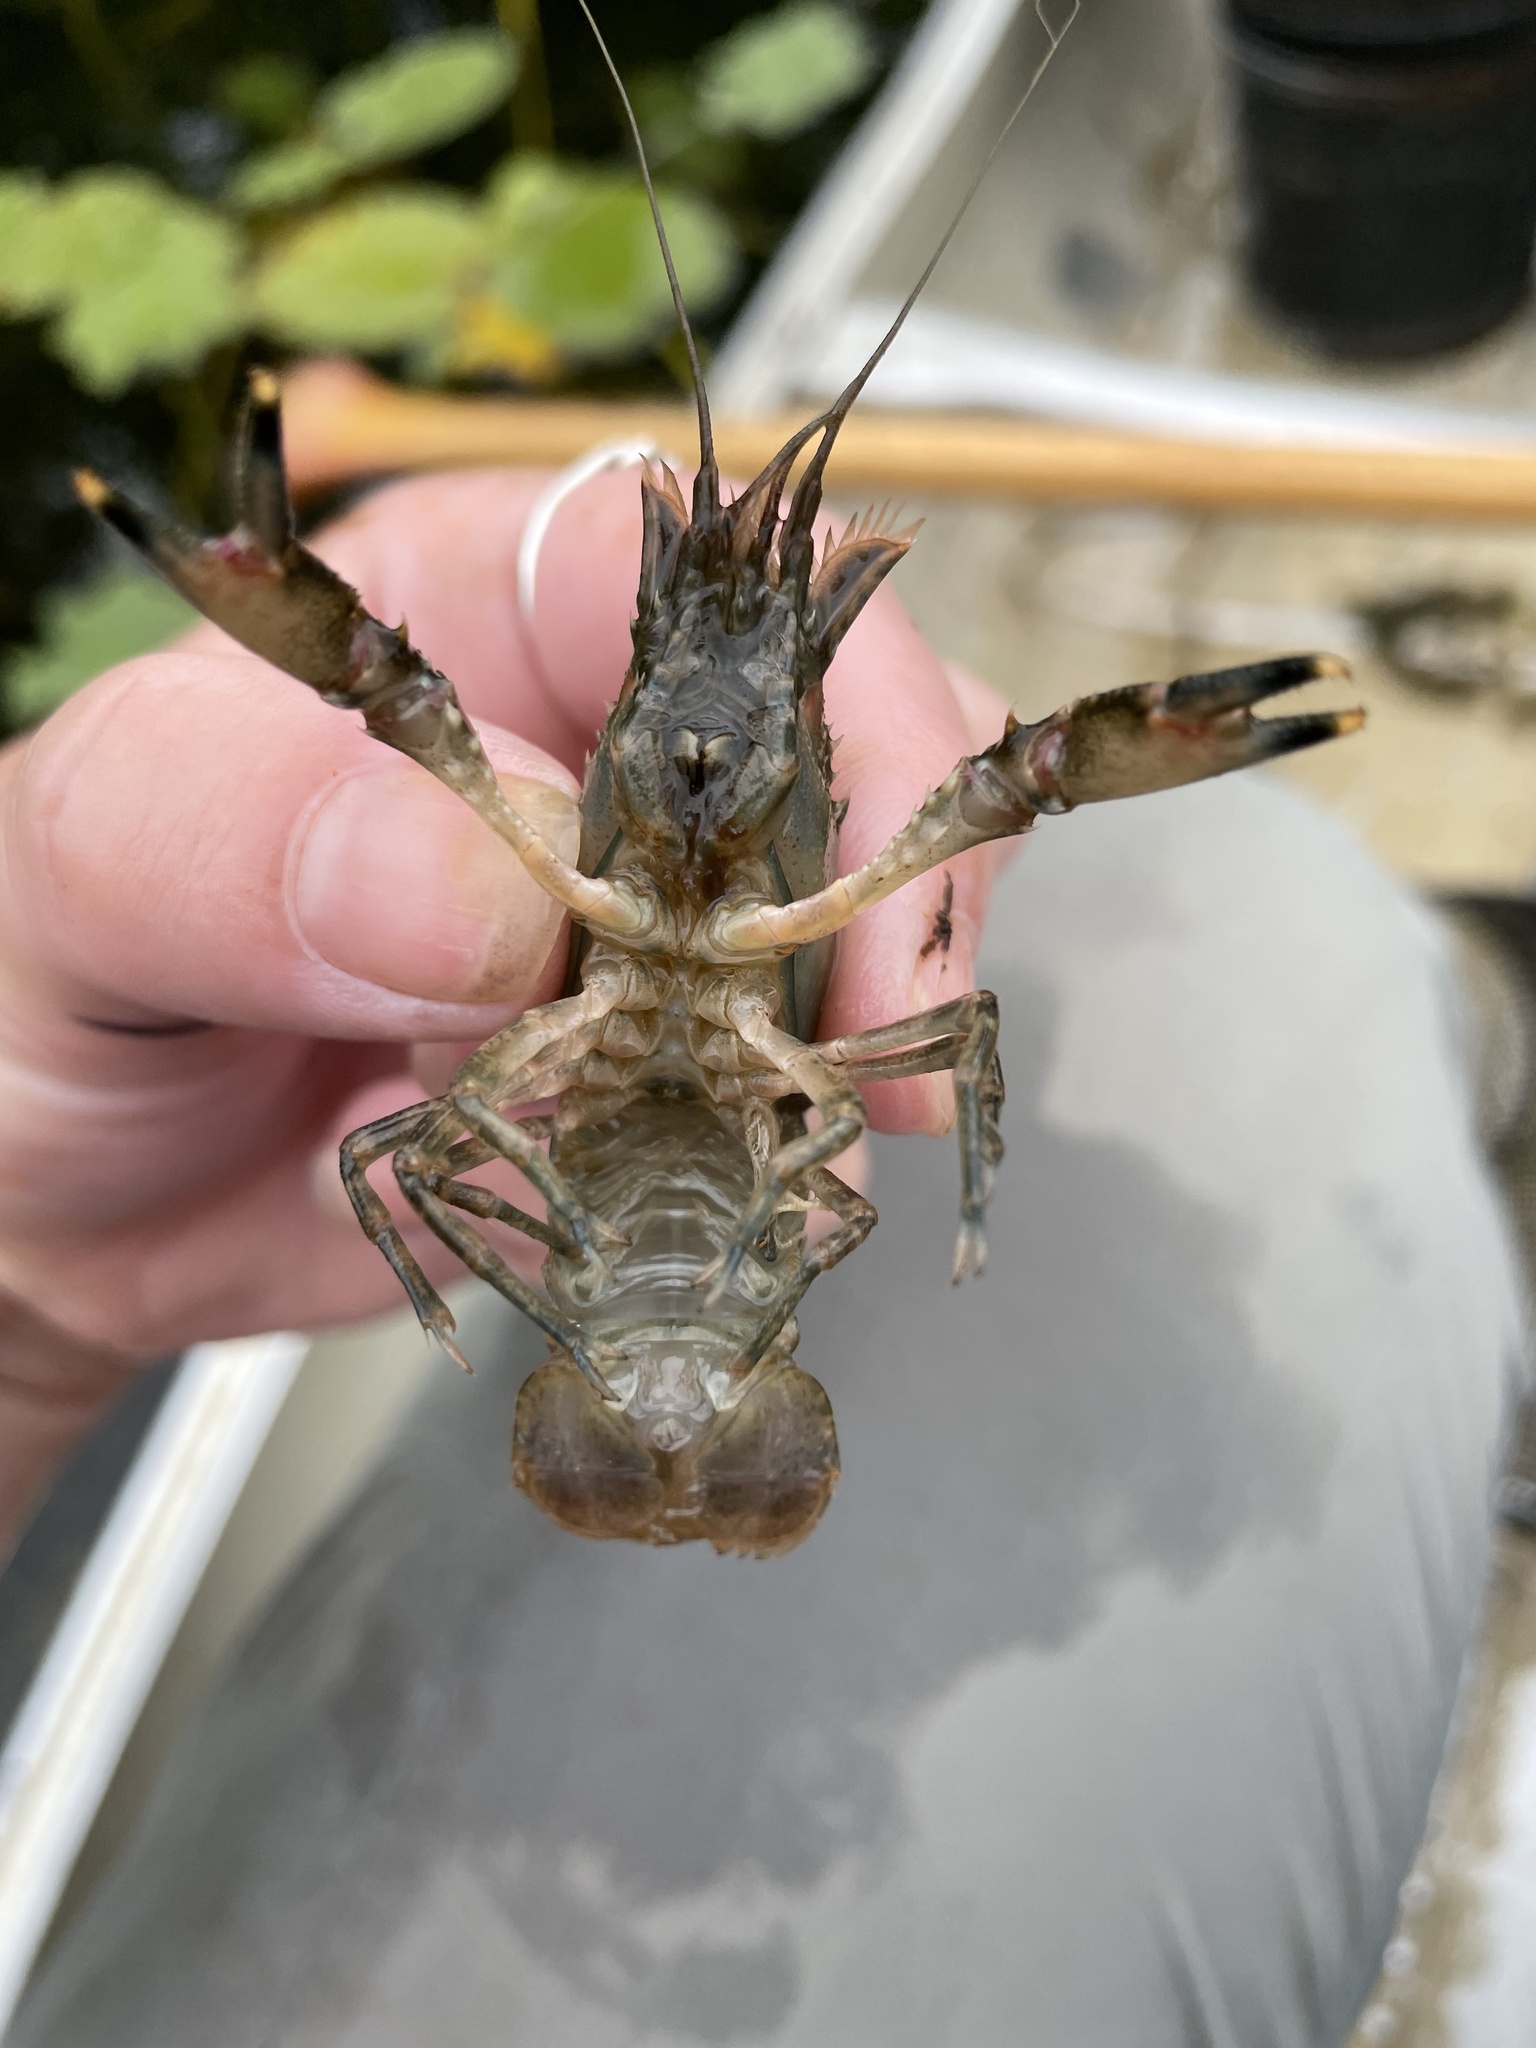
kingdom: Animalia
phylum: Arthropoda
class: Malacostraca
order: Decapoda
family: Cambaridae
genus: Faxonius
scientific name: Faxonius limosus
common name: American crayfish
